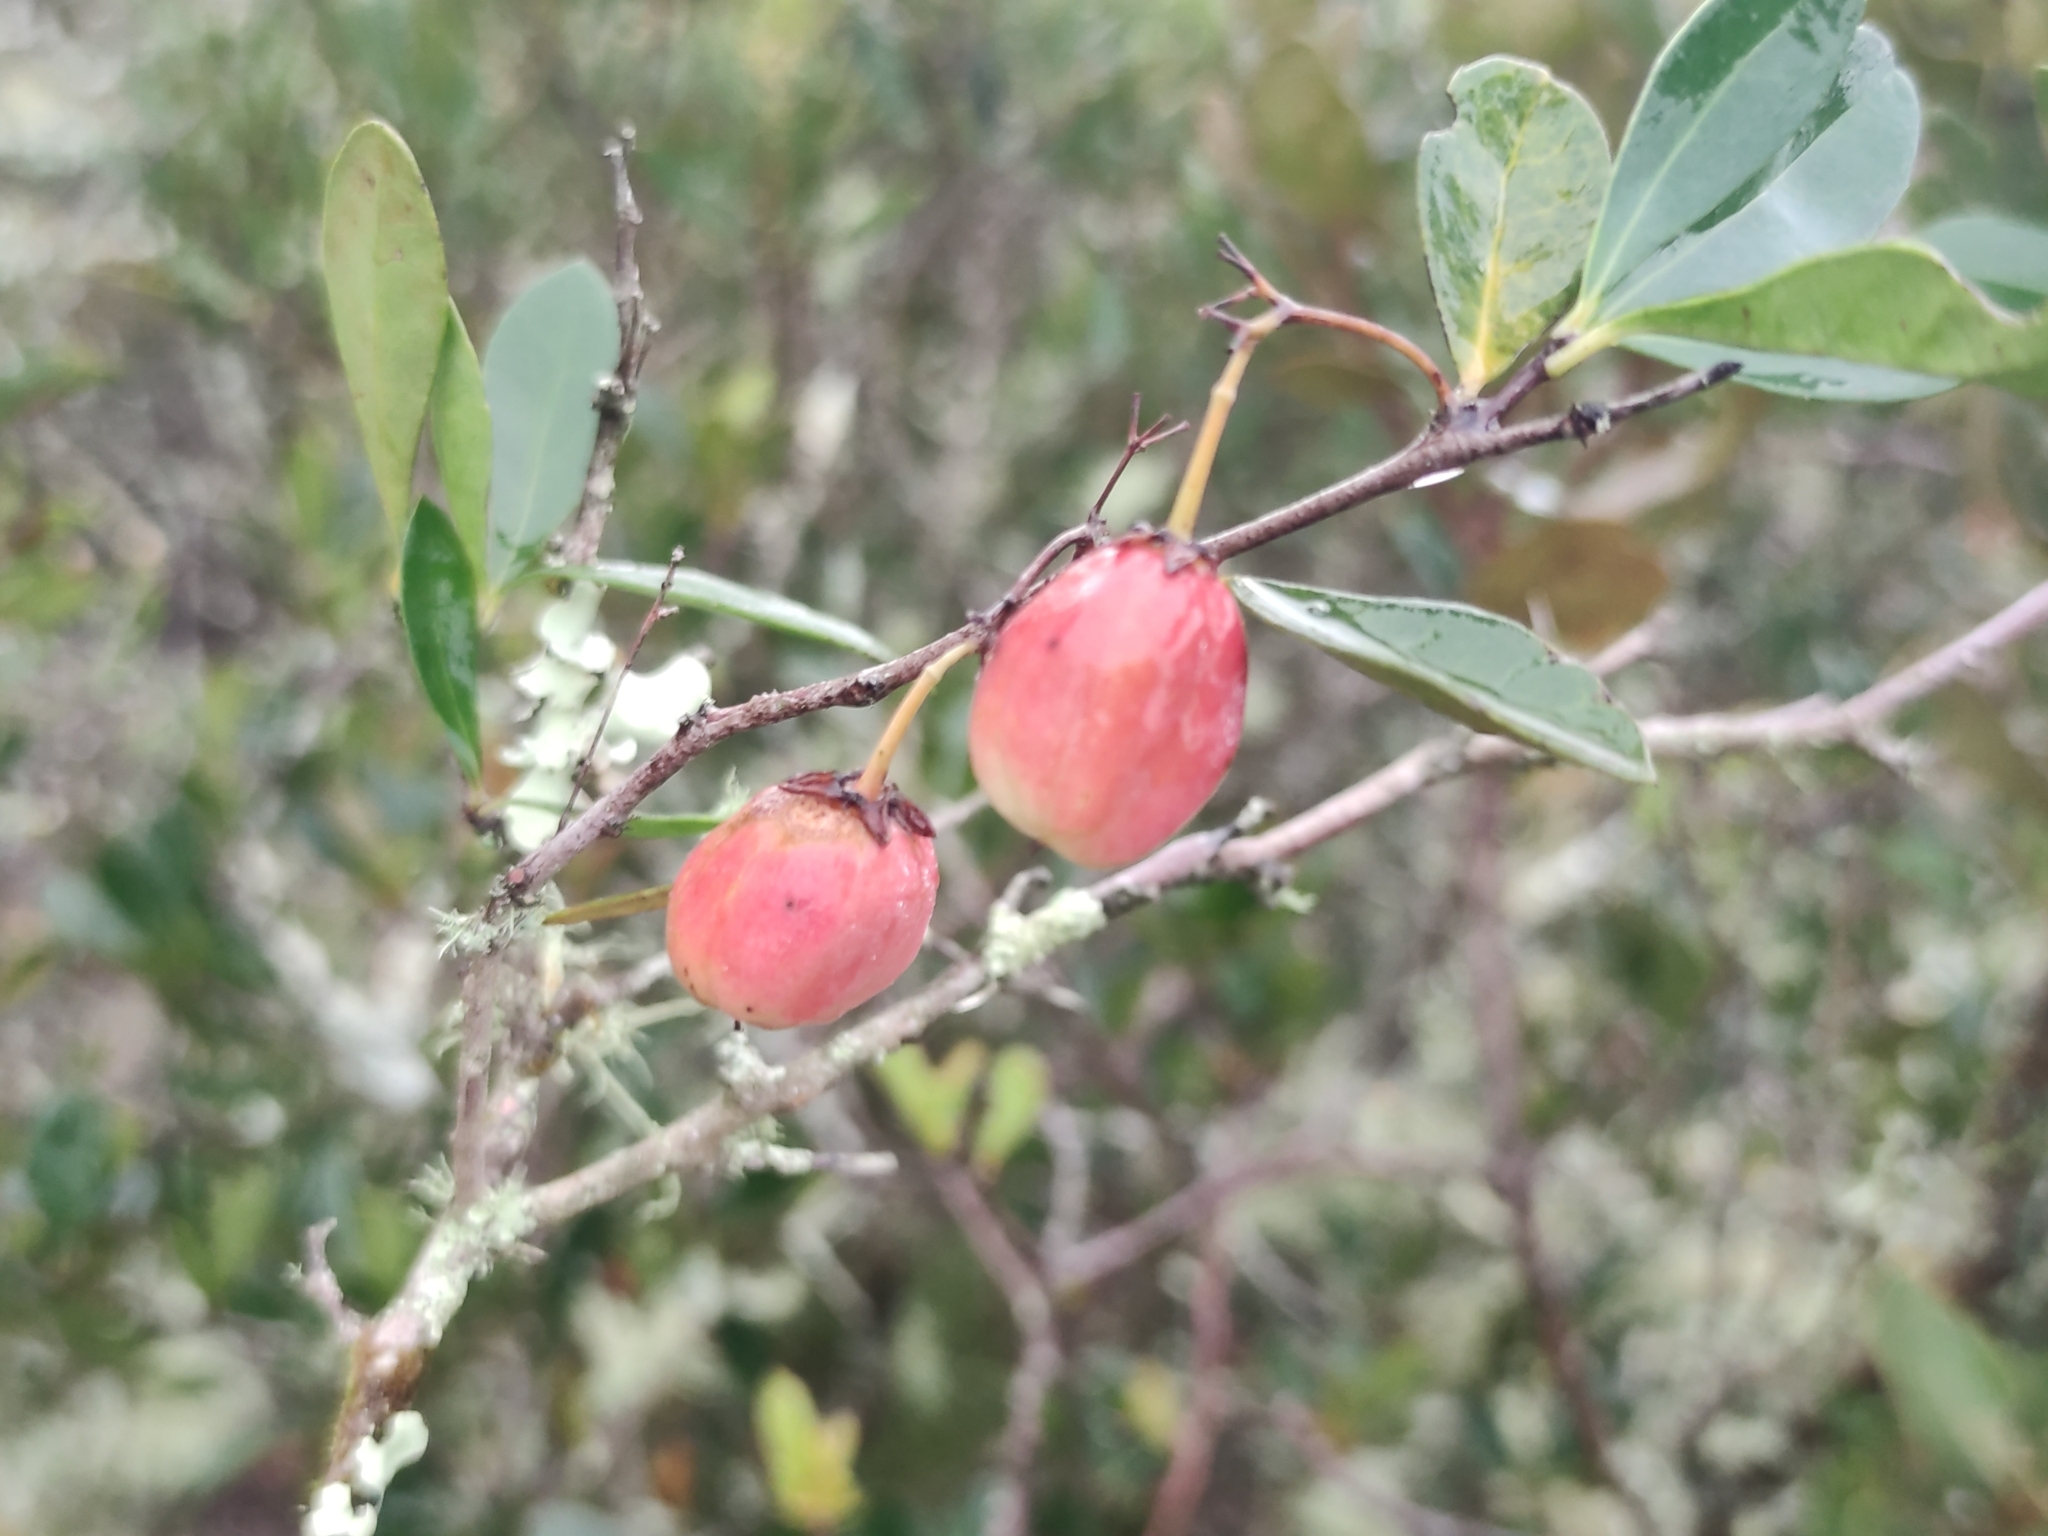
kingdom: Plantae
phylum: Tracheophyta
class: Magnoliopsida
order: Celastrales
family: Celastraceae
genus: Putterlickia
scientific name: Putterlickia pyracantha
